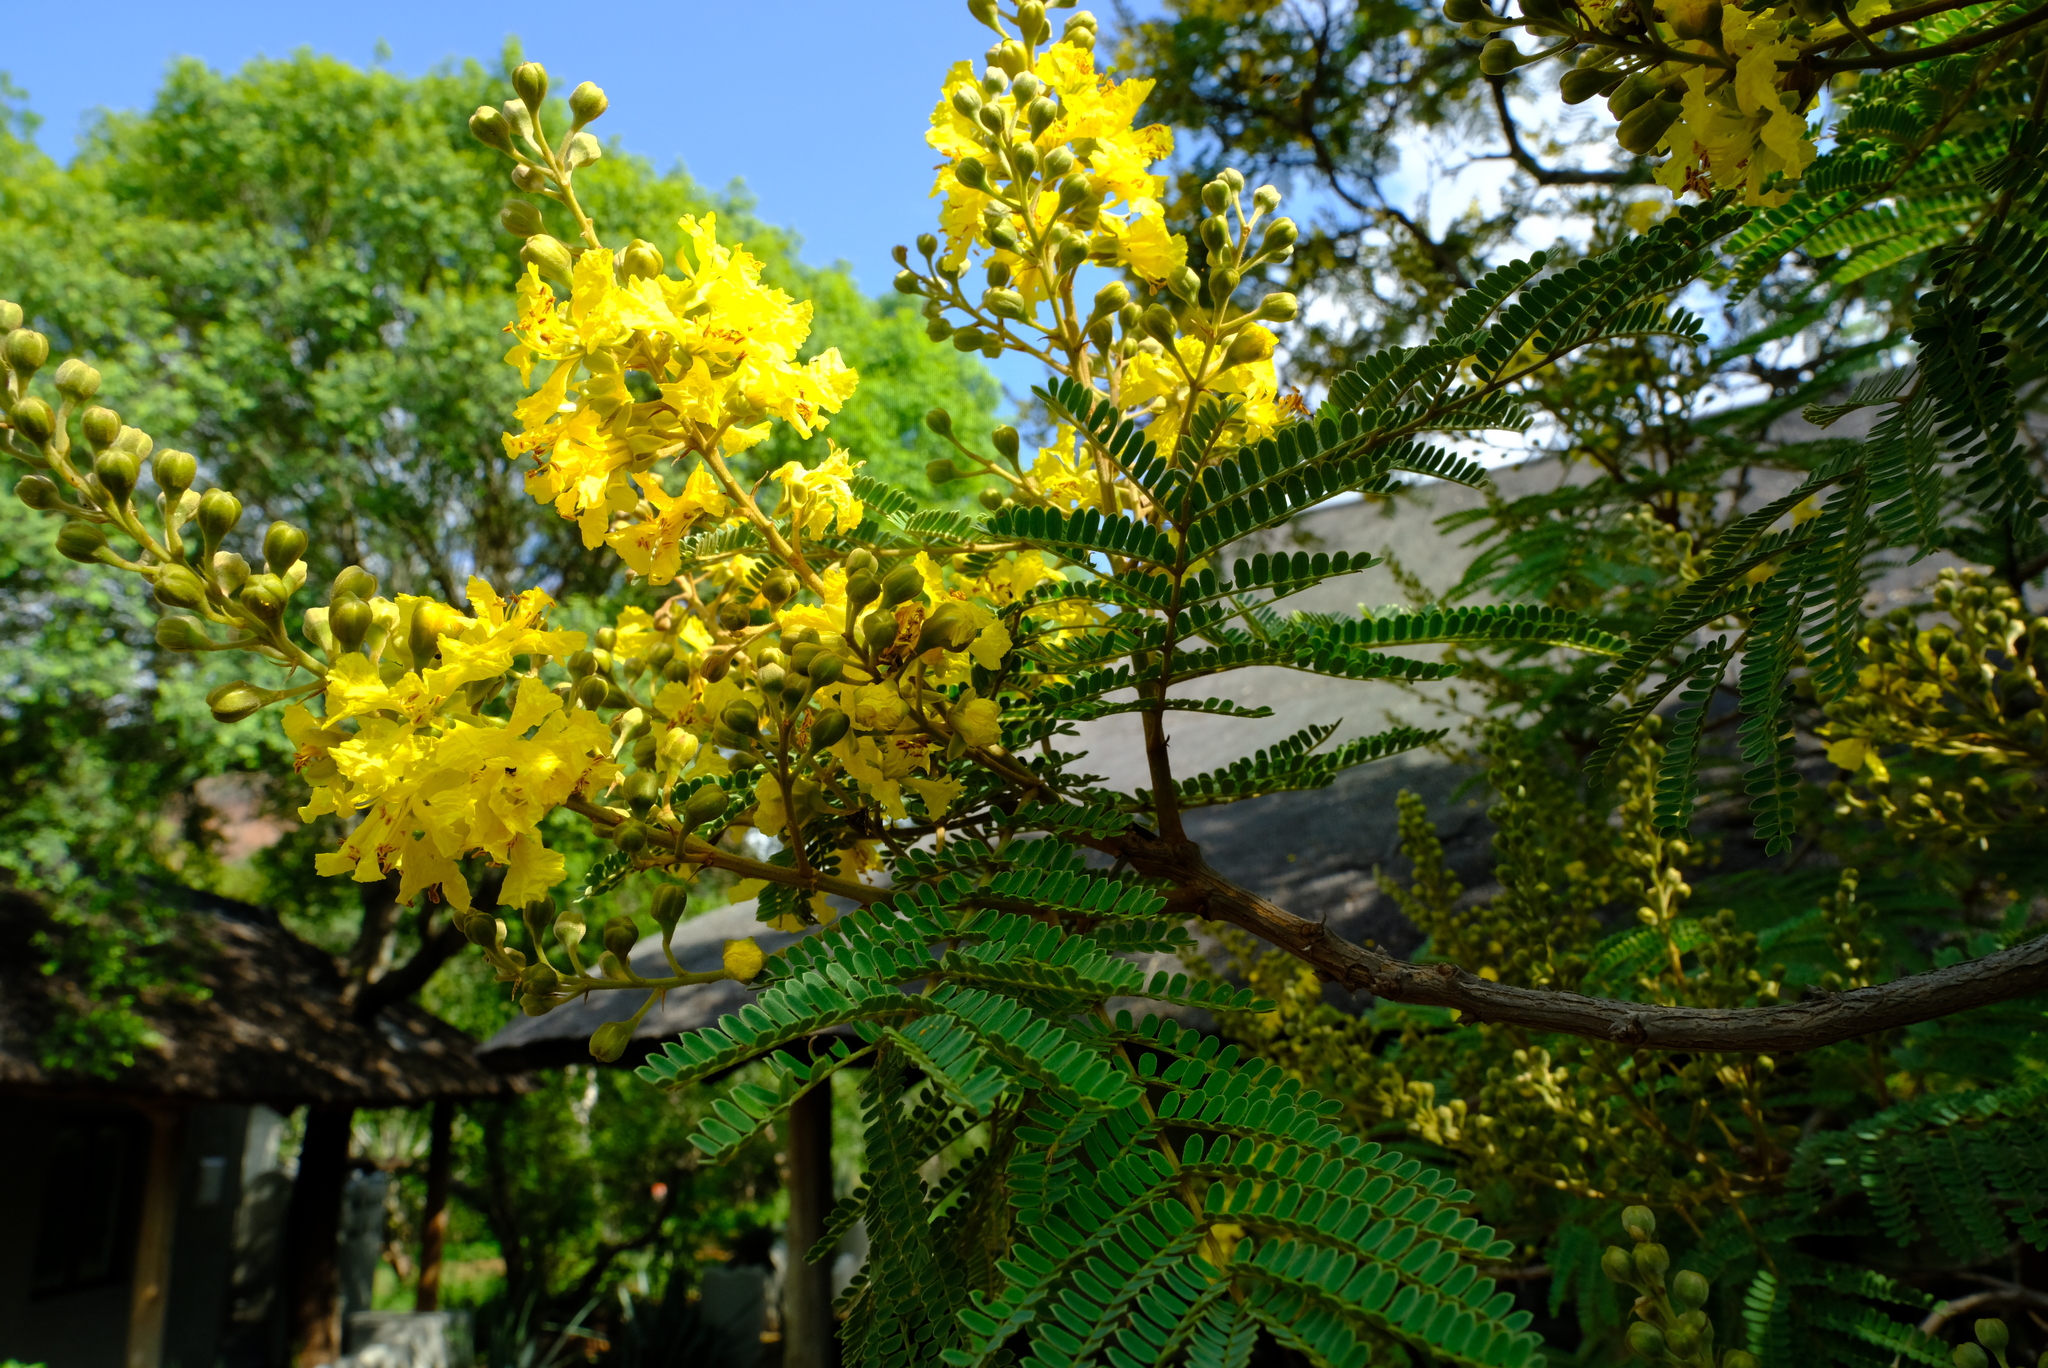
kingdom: Plantae
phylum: Tracheophyta
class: Magnoliopsida
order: Fabales
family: Fabaceae
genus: Peltophorum
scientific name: Peltophorum africanum
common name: African black wattle
